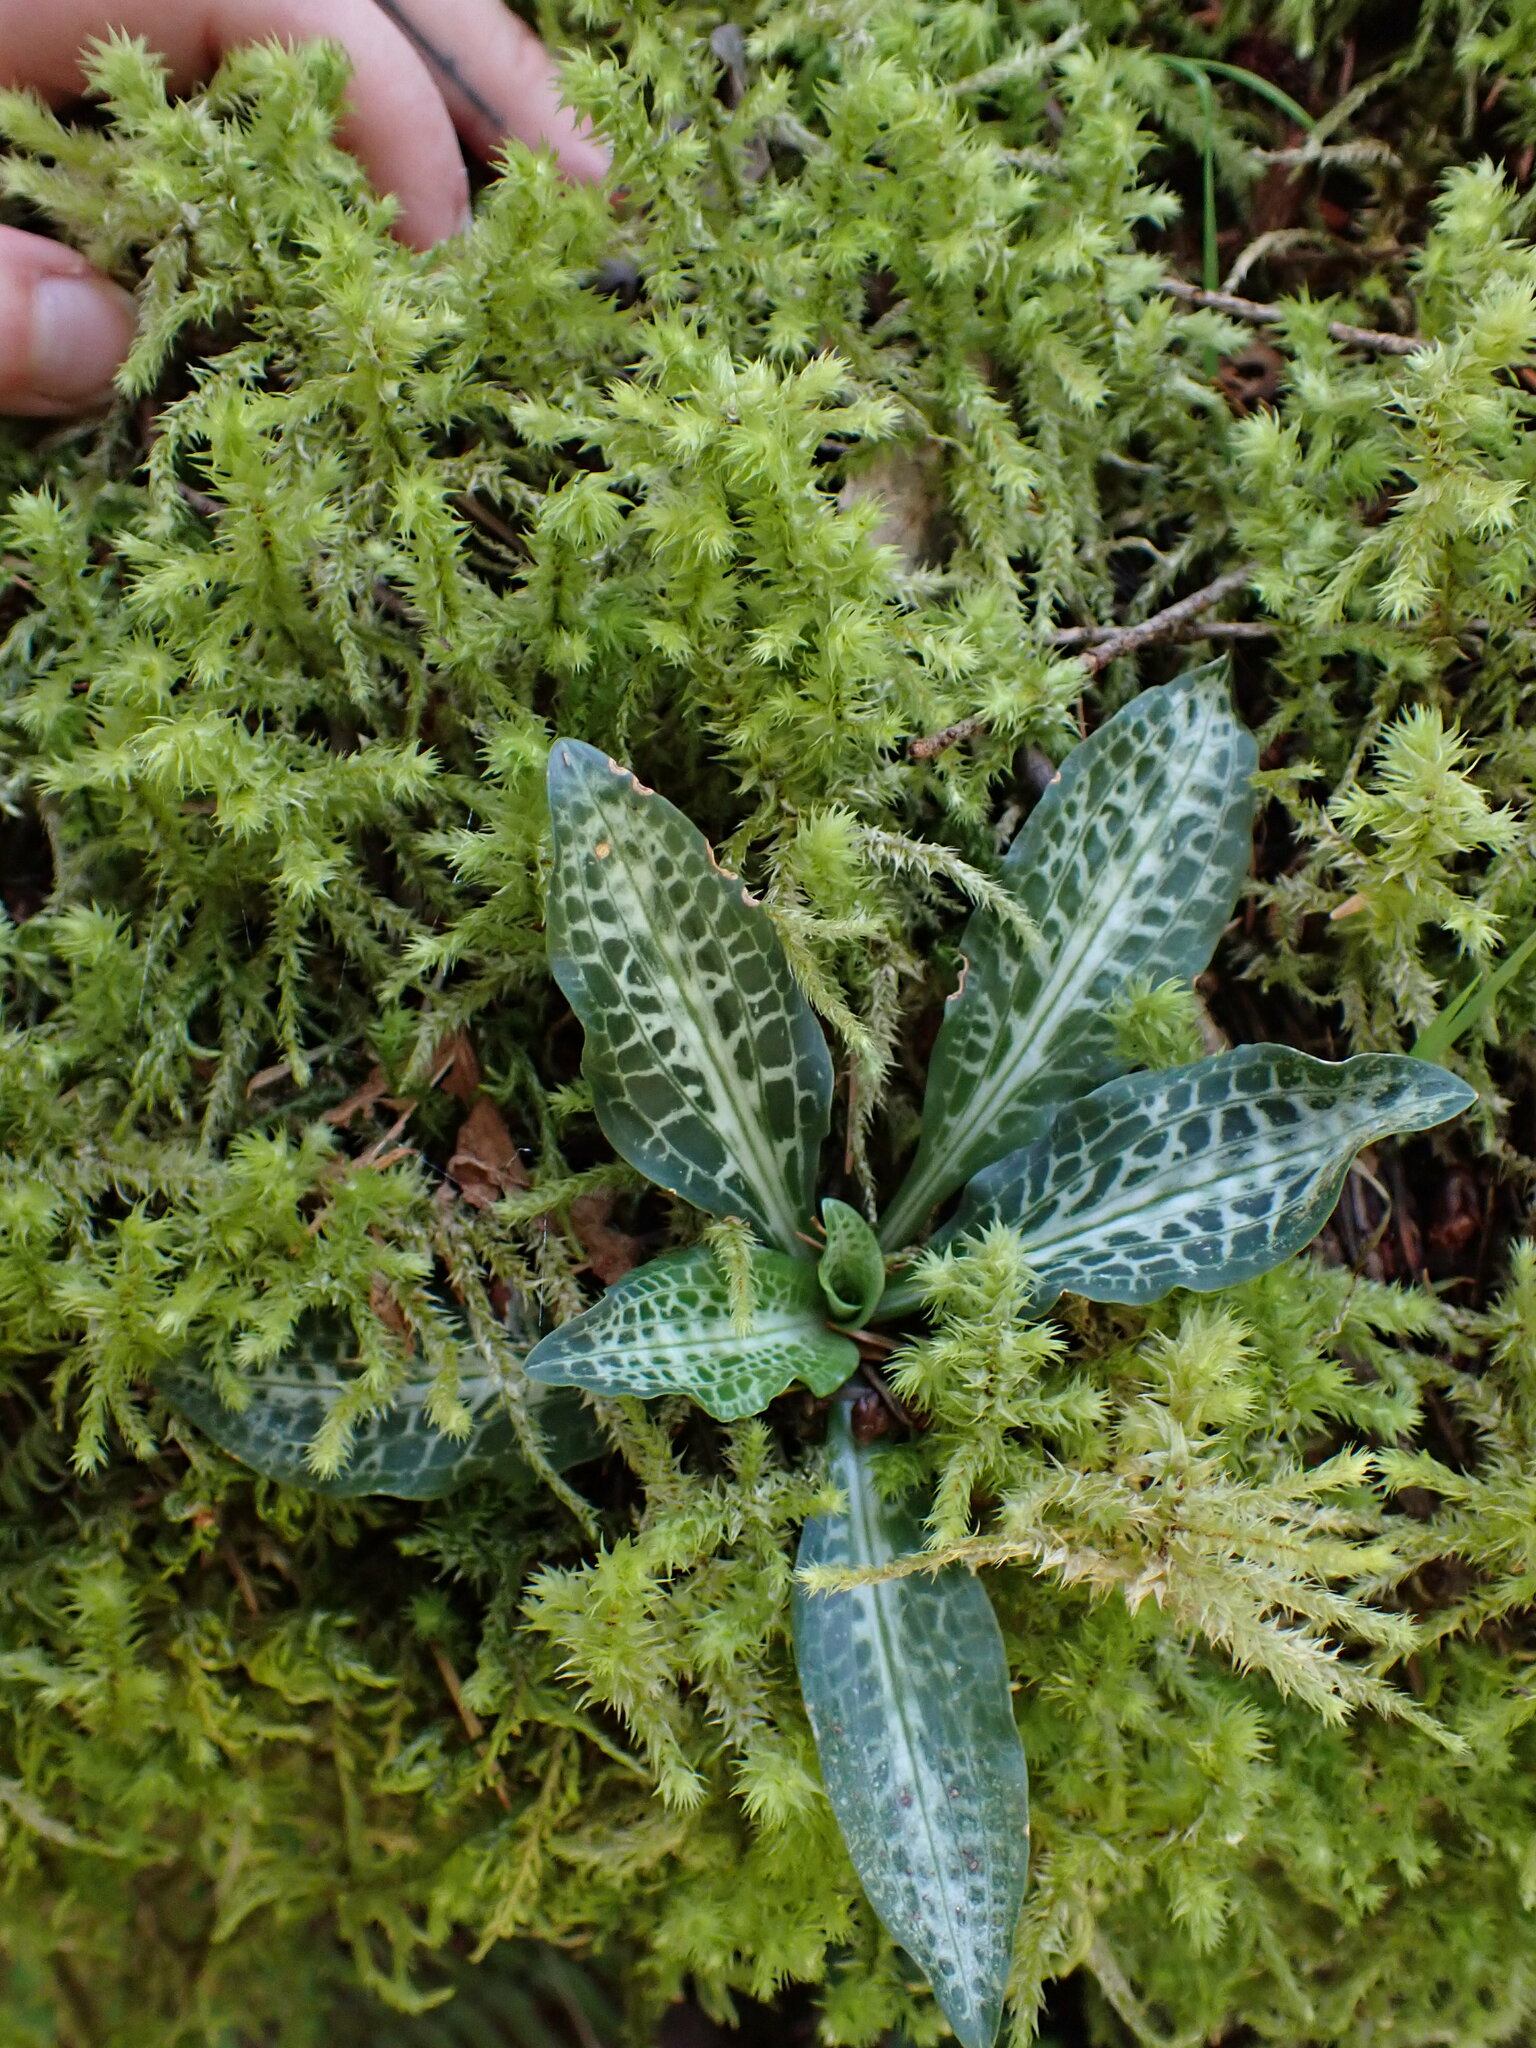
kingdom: Plantae
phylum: Tracheophyta
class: Liliopsida
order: Asparagales
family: Orchidaceae
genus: Goodyera
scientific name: Goodyera oblongifolia
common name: Giant rattlesnake-plantain
